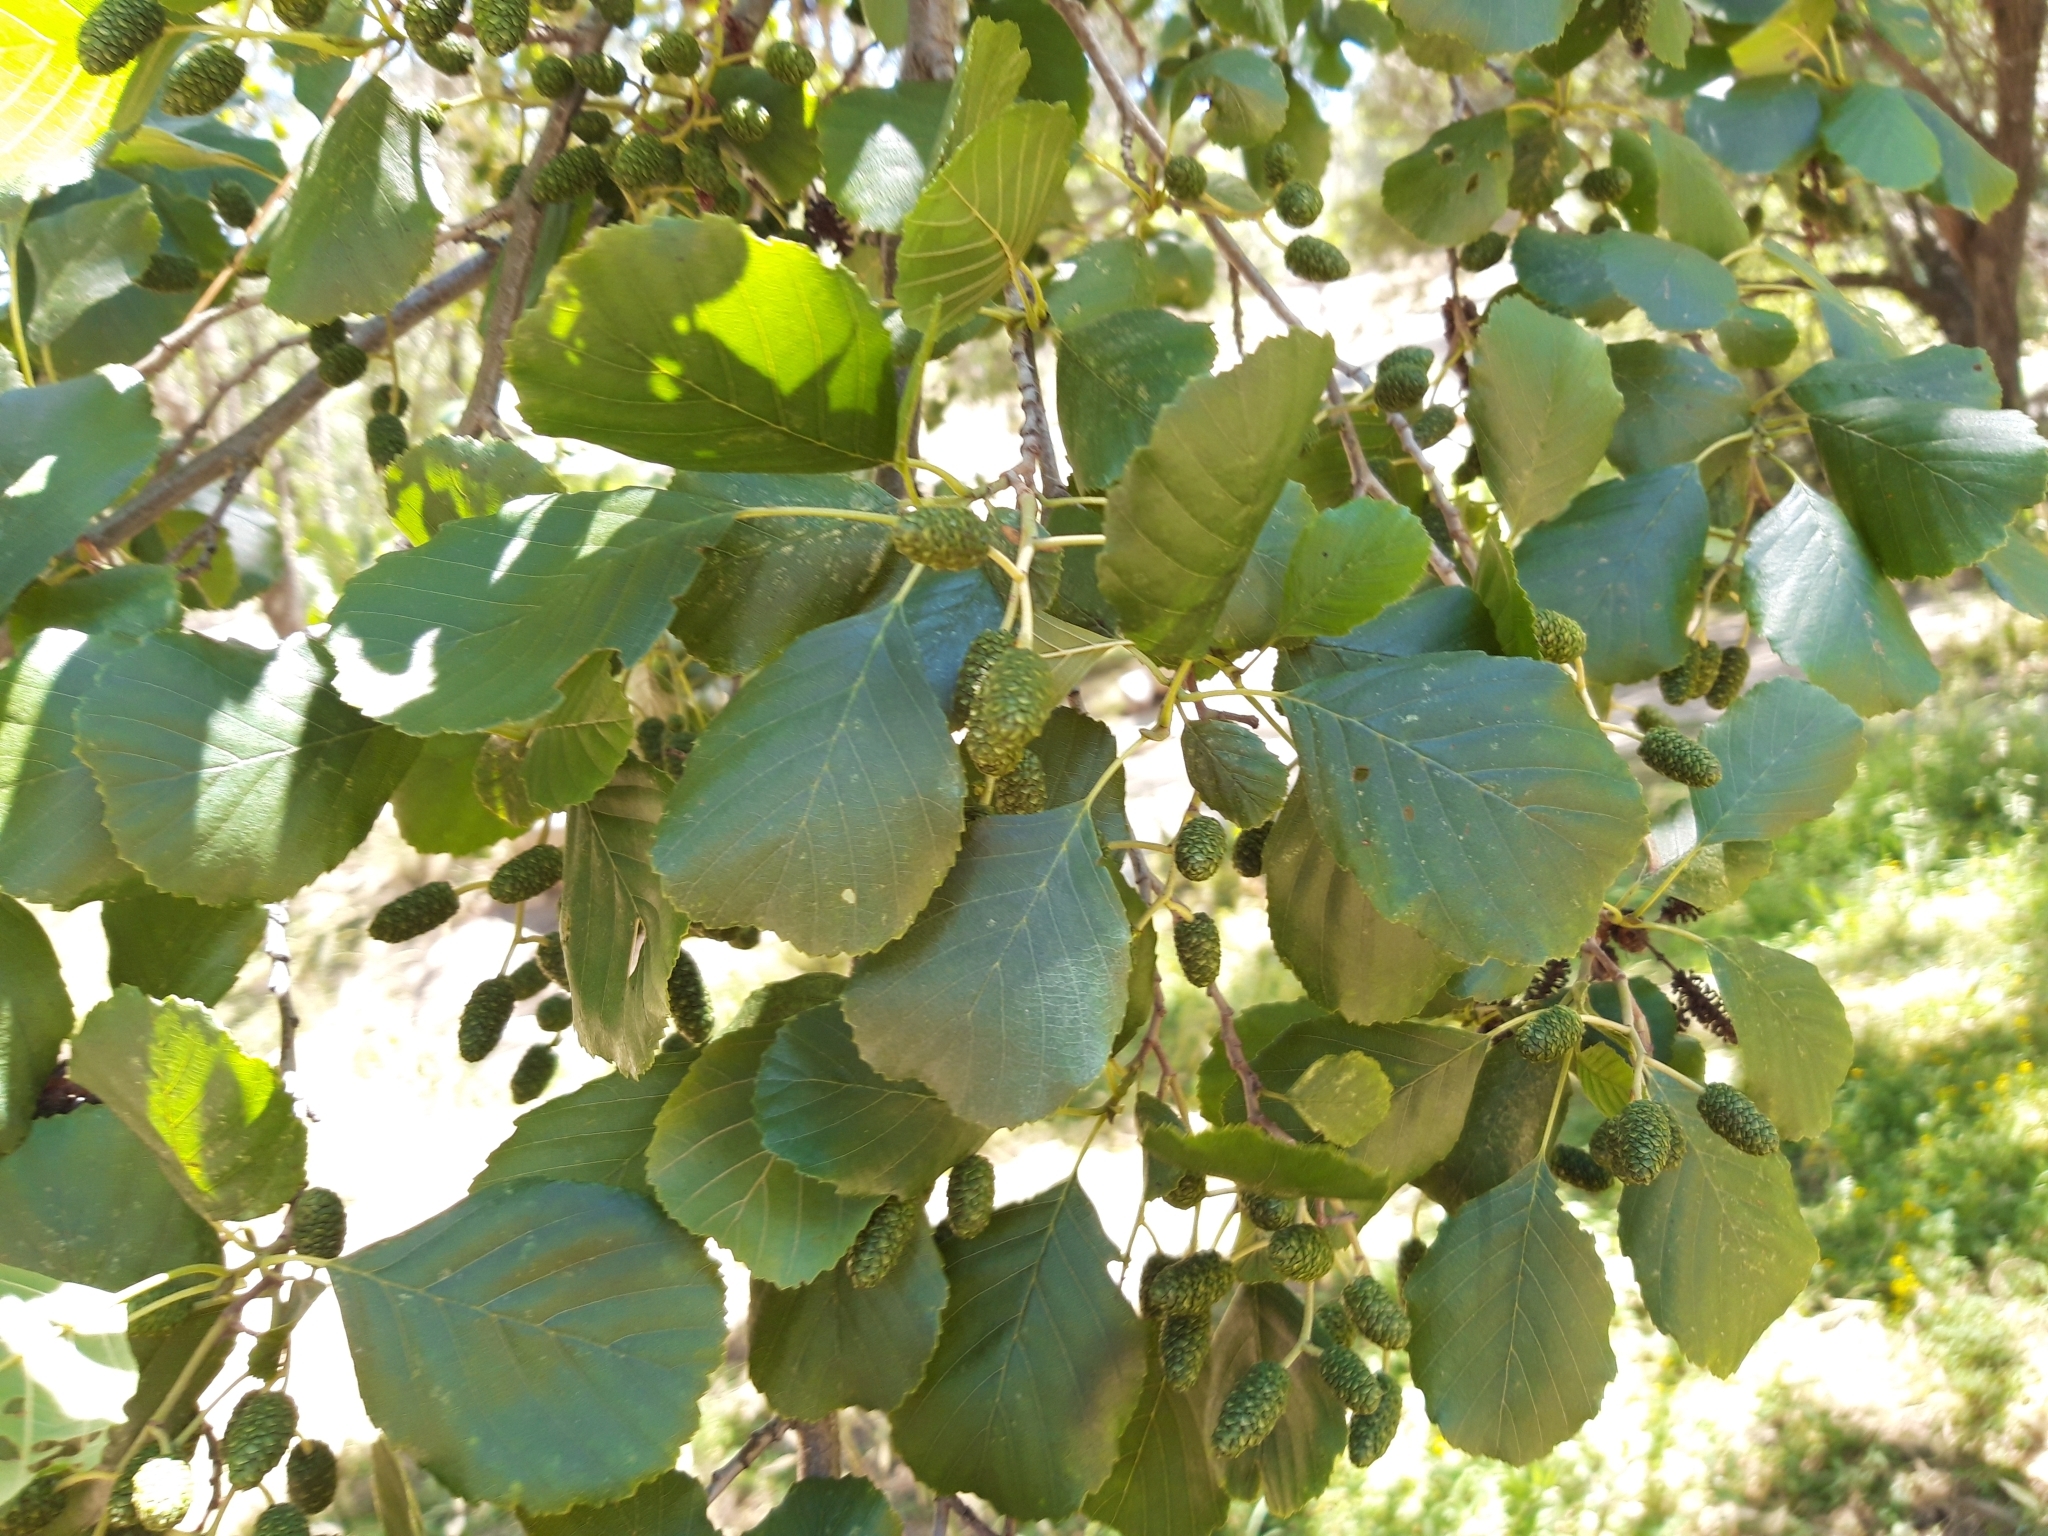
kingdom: Plantae
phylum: Tracheophyta
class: Magnoliopsida
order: Fagales
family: Betulaceae
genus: Alnus
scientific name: Alnus lusitanica
